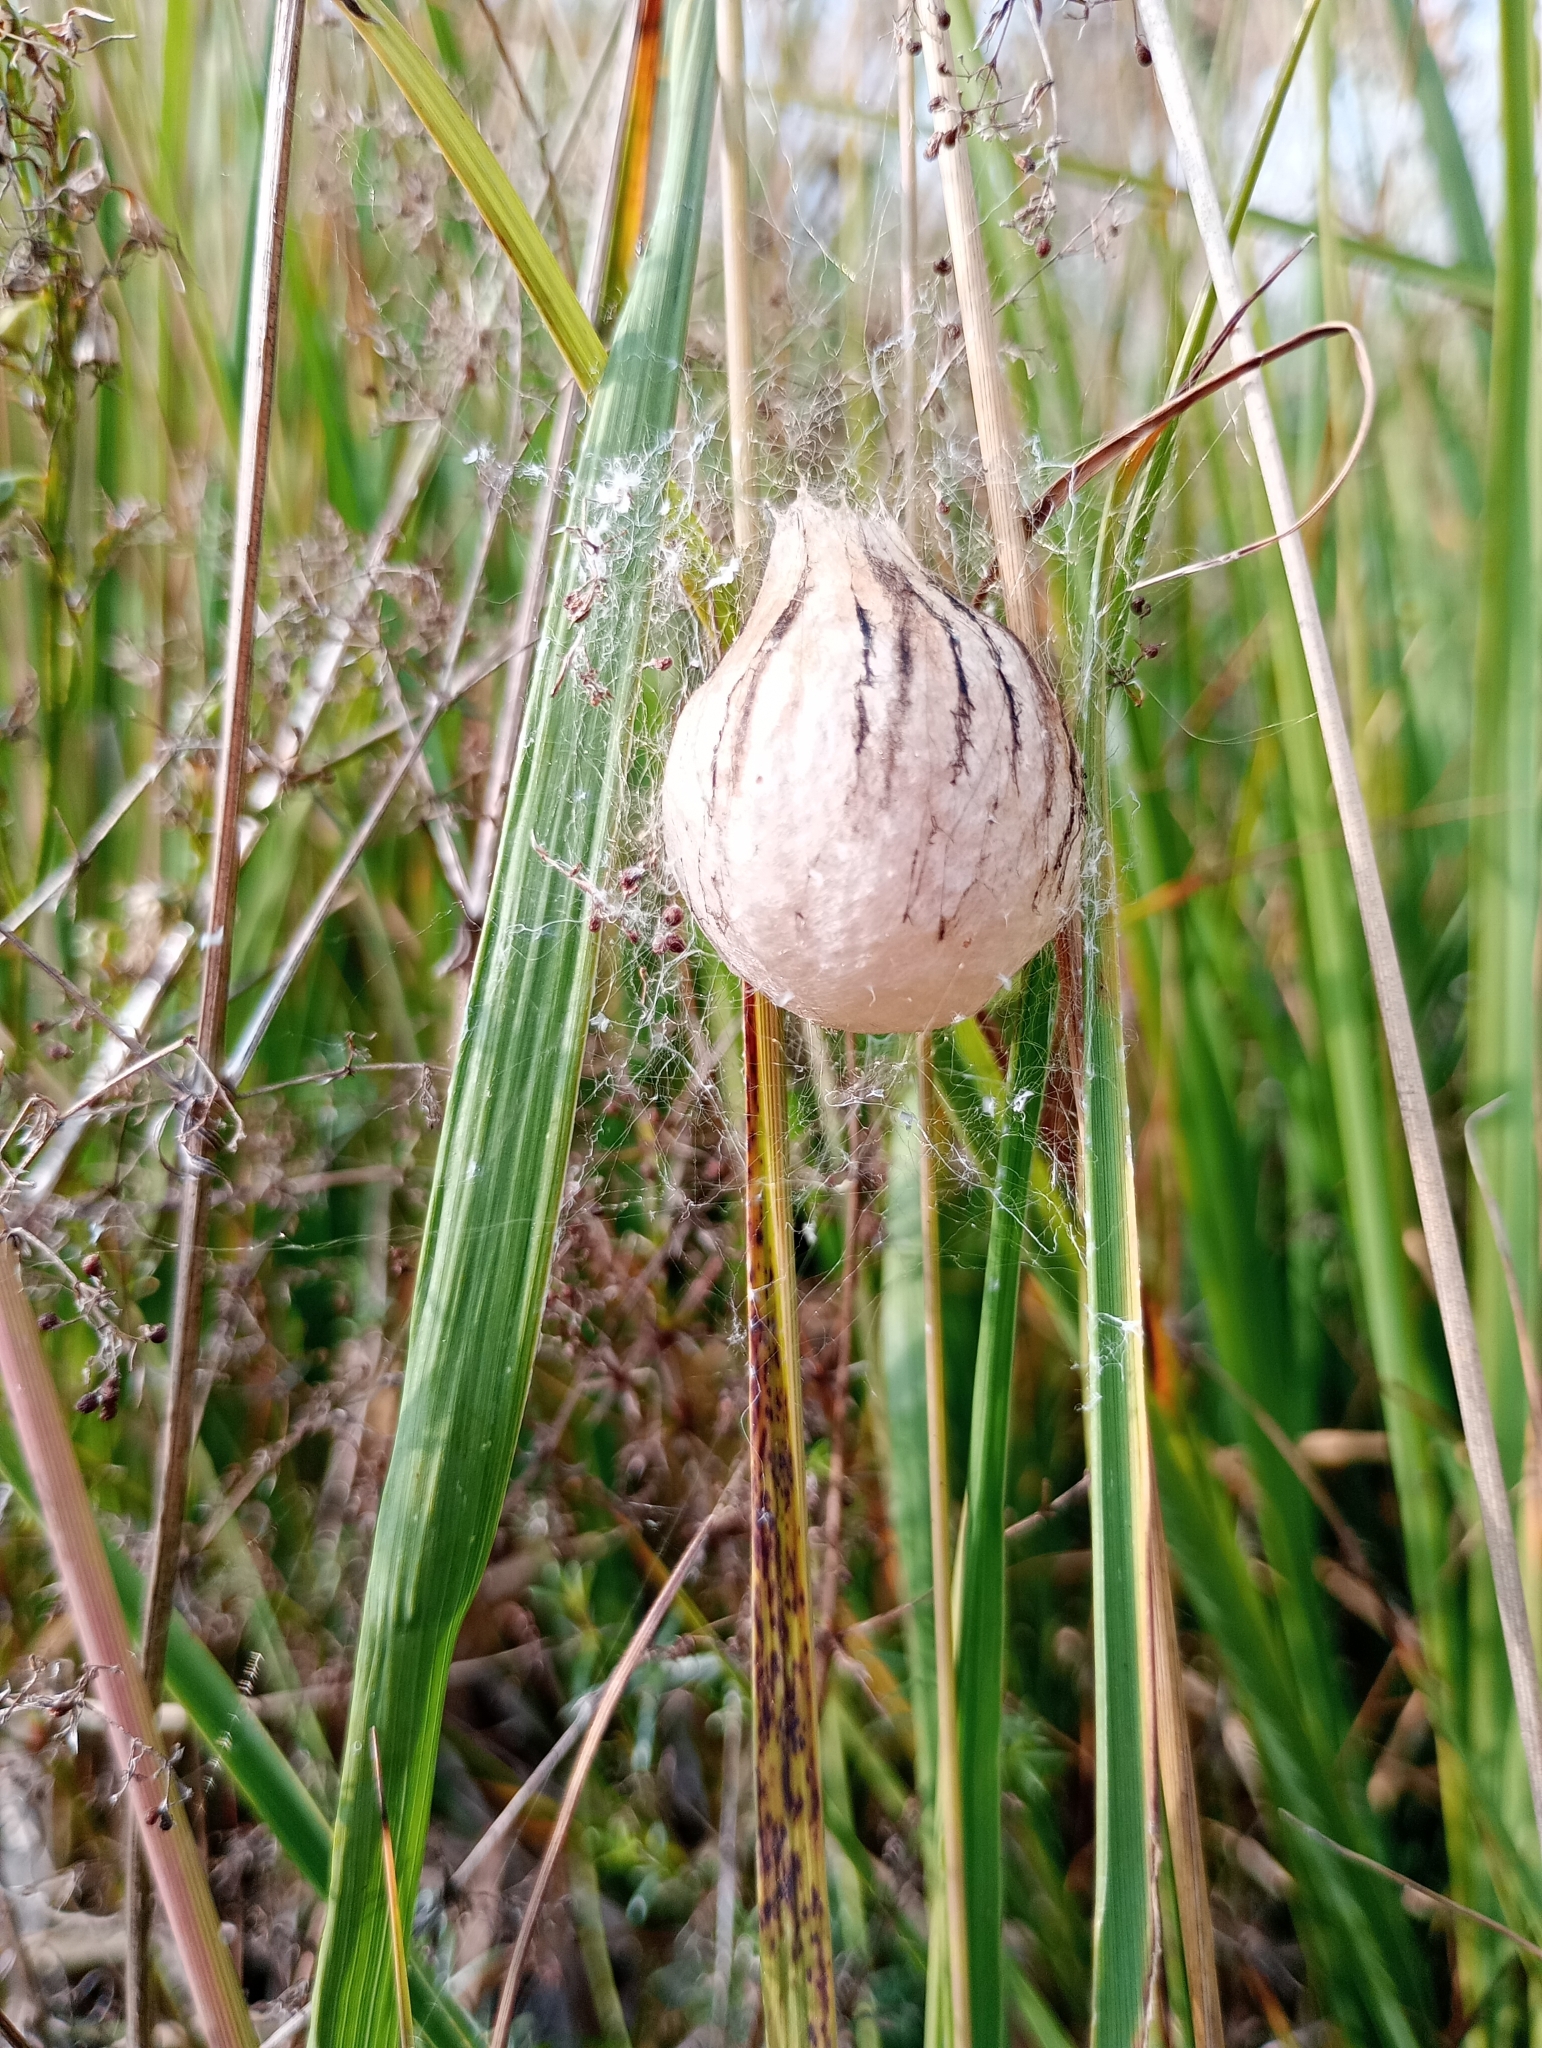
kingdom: Animalia
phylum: Arthropoda
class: Arachnida
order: Araneae
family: Araneidae
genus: Argiope
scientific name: Argiope bruennichi
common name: Wasp spider
